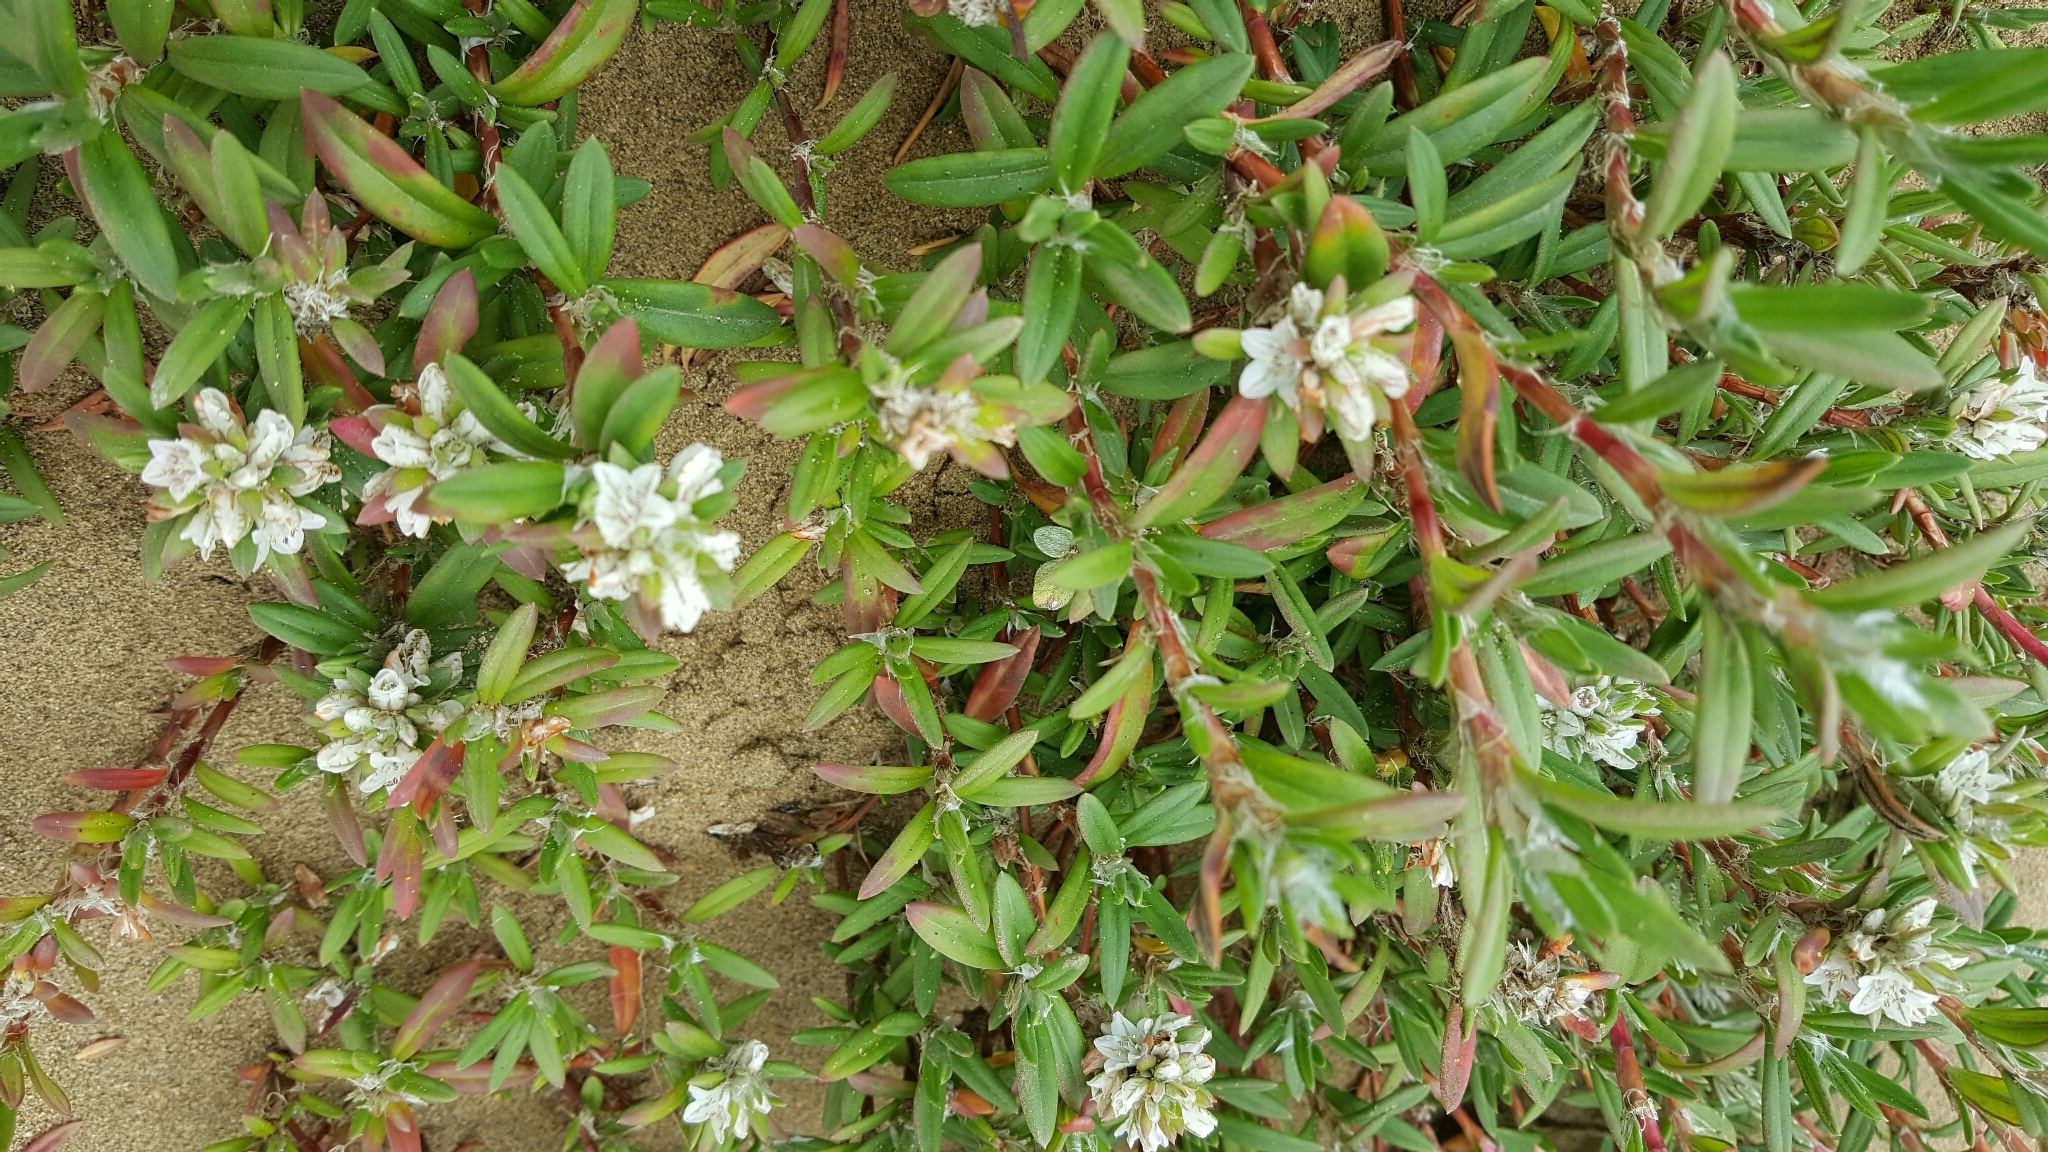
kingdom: Plantae
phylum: Tracheophyta
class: Magnoliopsida
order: Caryophyllales
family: Polygonaceae
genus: Polygonum
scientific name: Polygonum paronychia
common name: Dune knotweed
